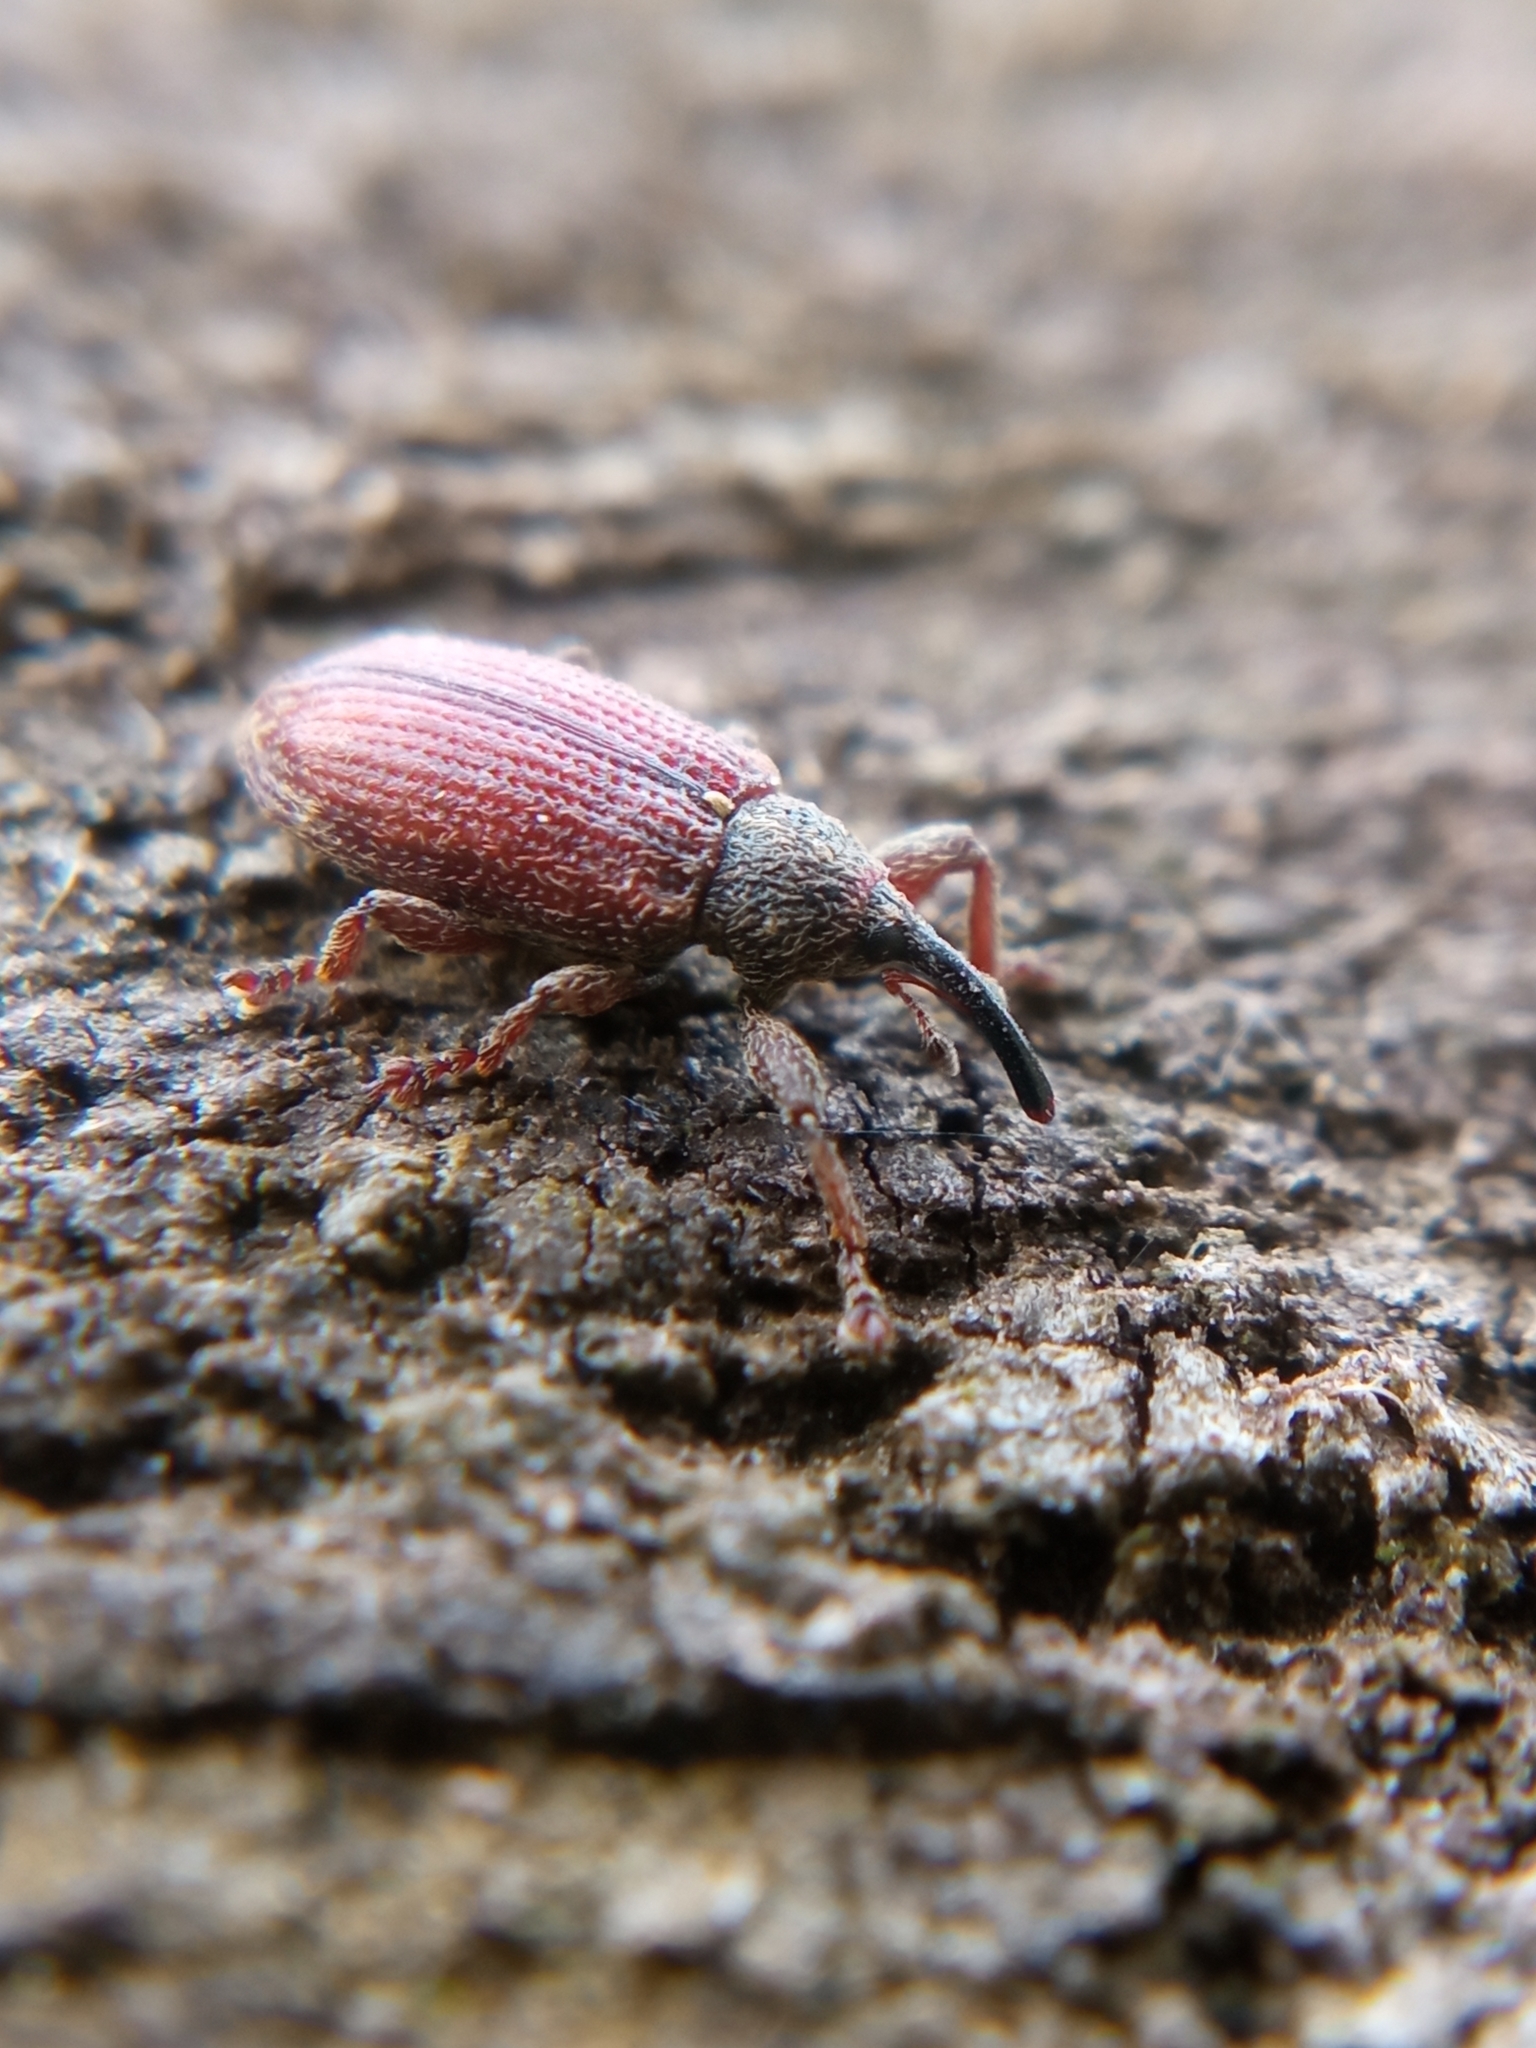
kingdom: Animalia
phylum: Arthropoda
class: Insecta
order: Coleoptera
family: Curculionidae
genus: Bradybatus
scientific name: Bradybatus kellneri
